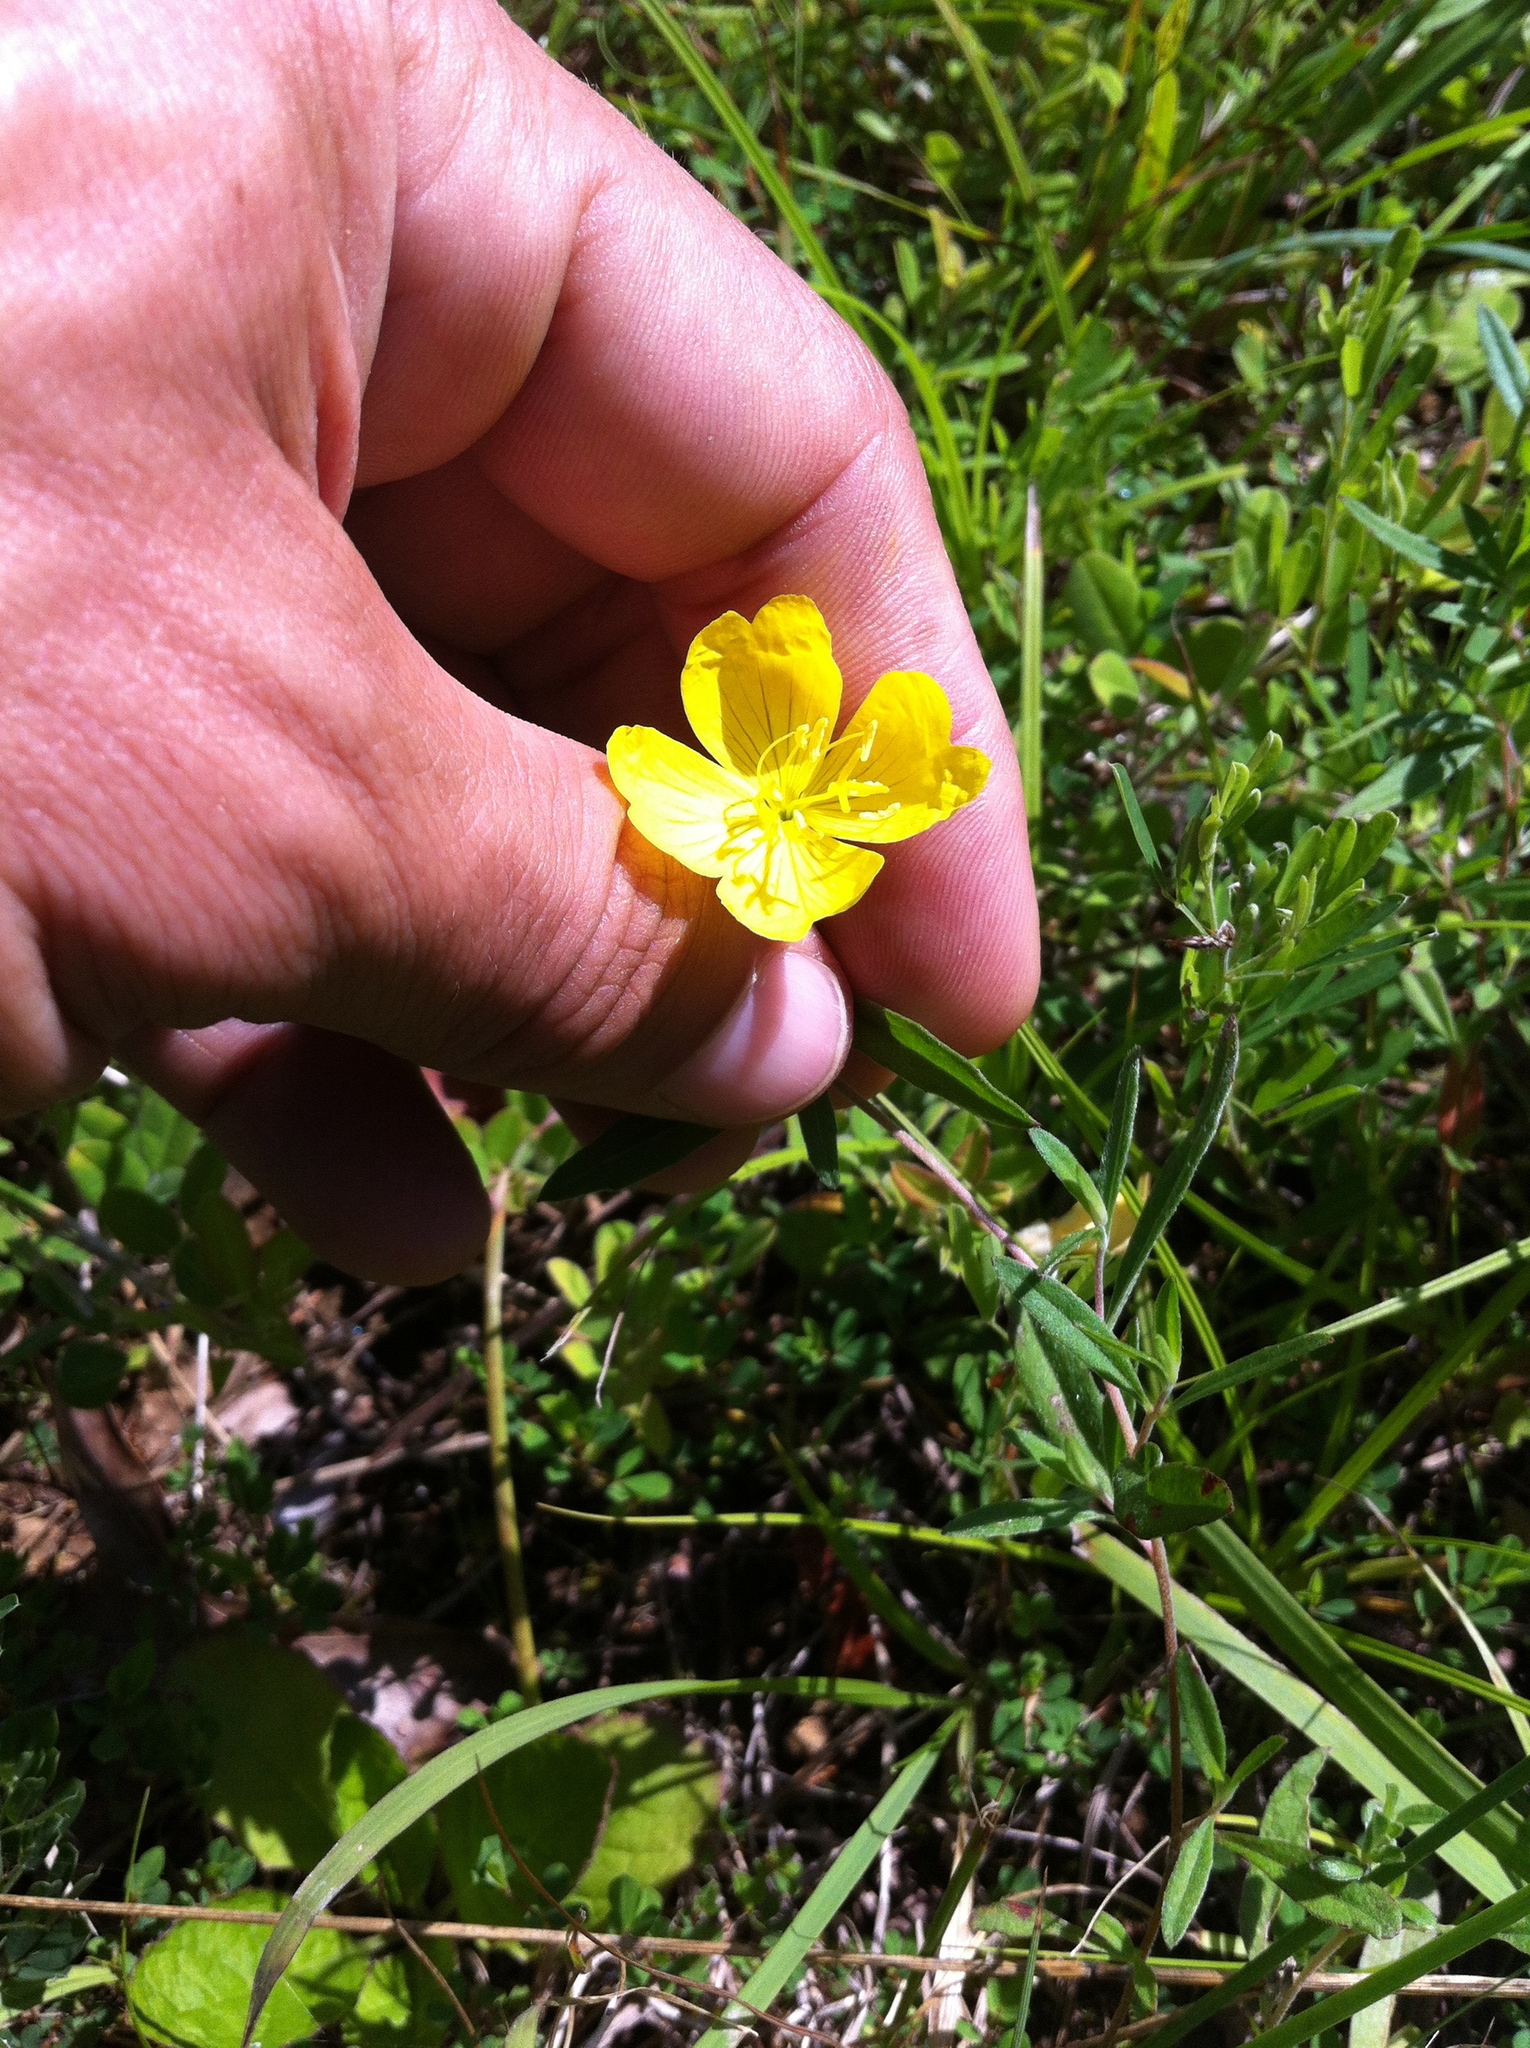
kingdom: Plantae
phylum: Tracheophyta
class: Magnoliopsida
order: Myrtales
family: Onagraceae
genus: Oenothera
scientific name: Oenothera fruticosa
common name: Southern sundrops
